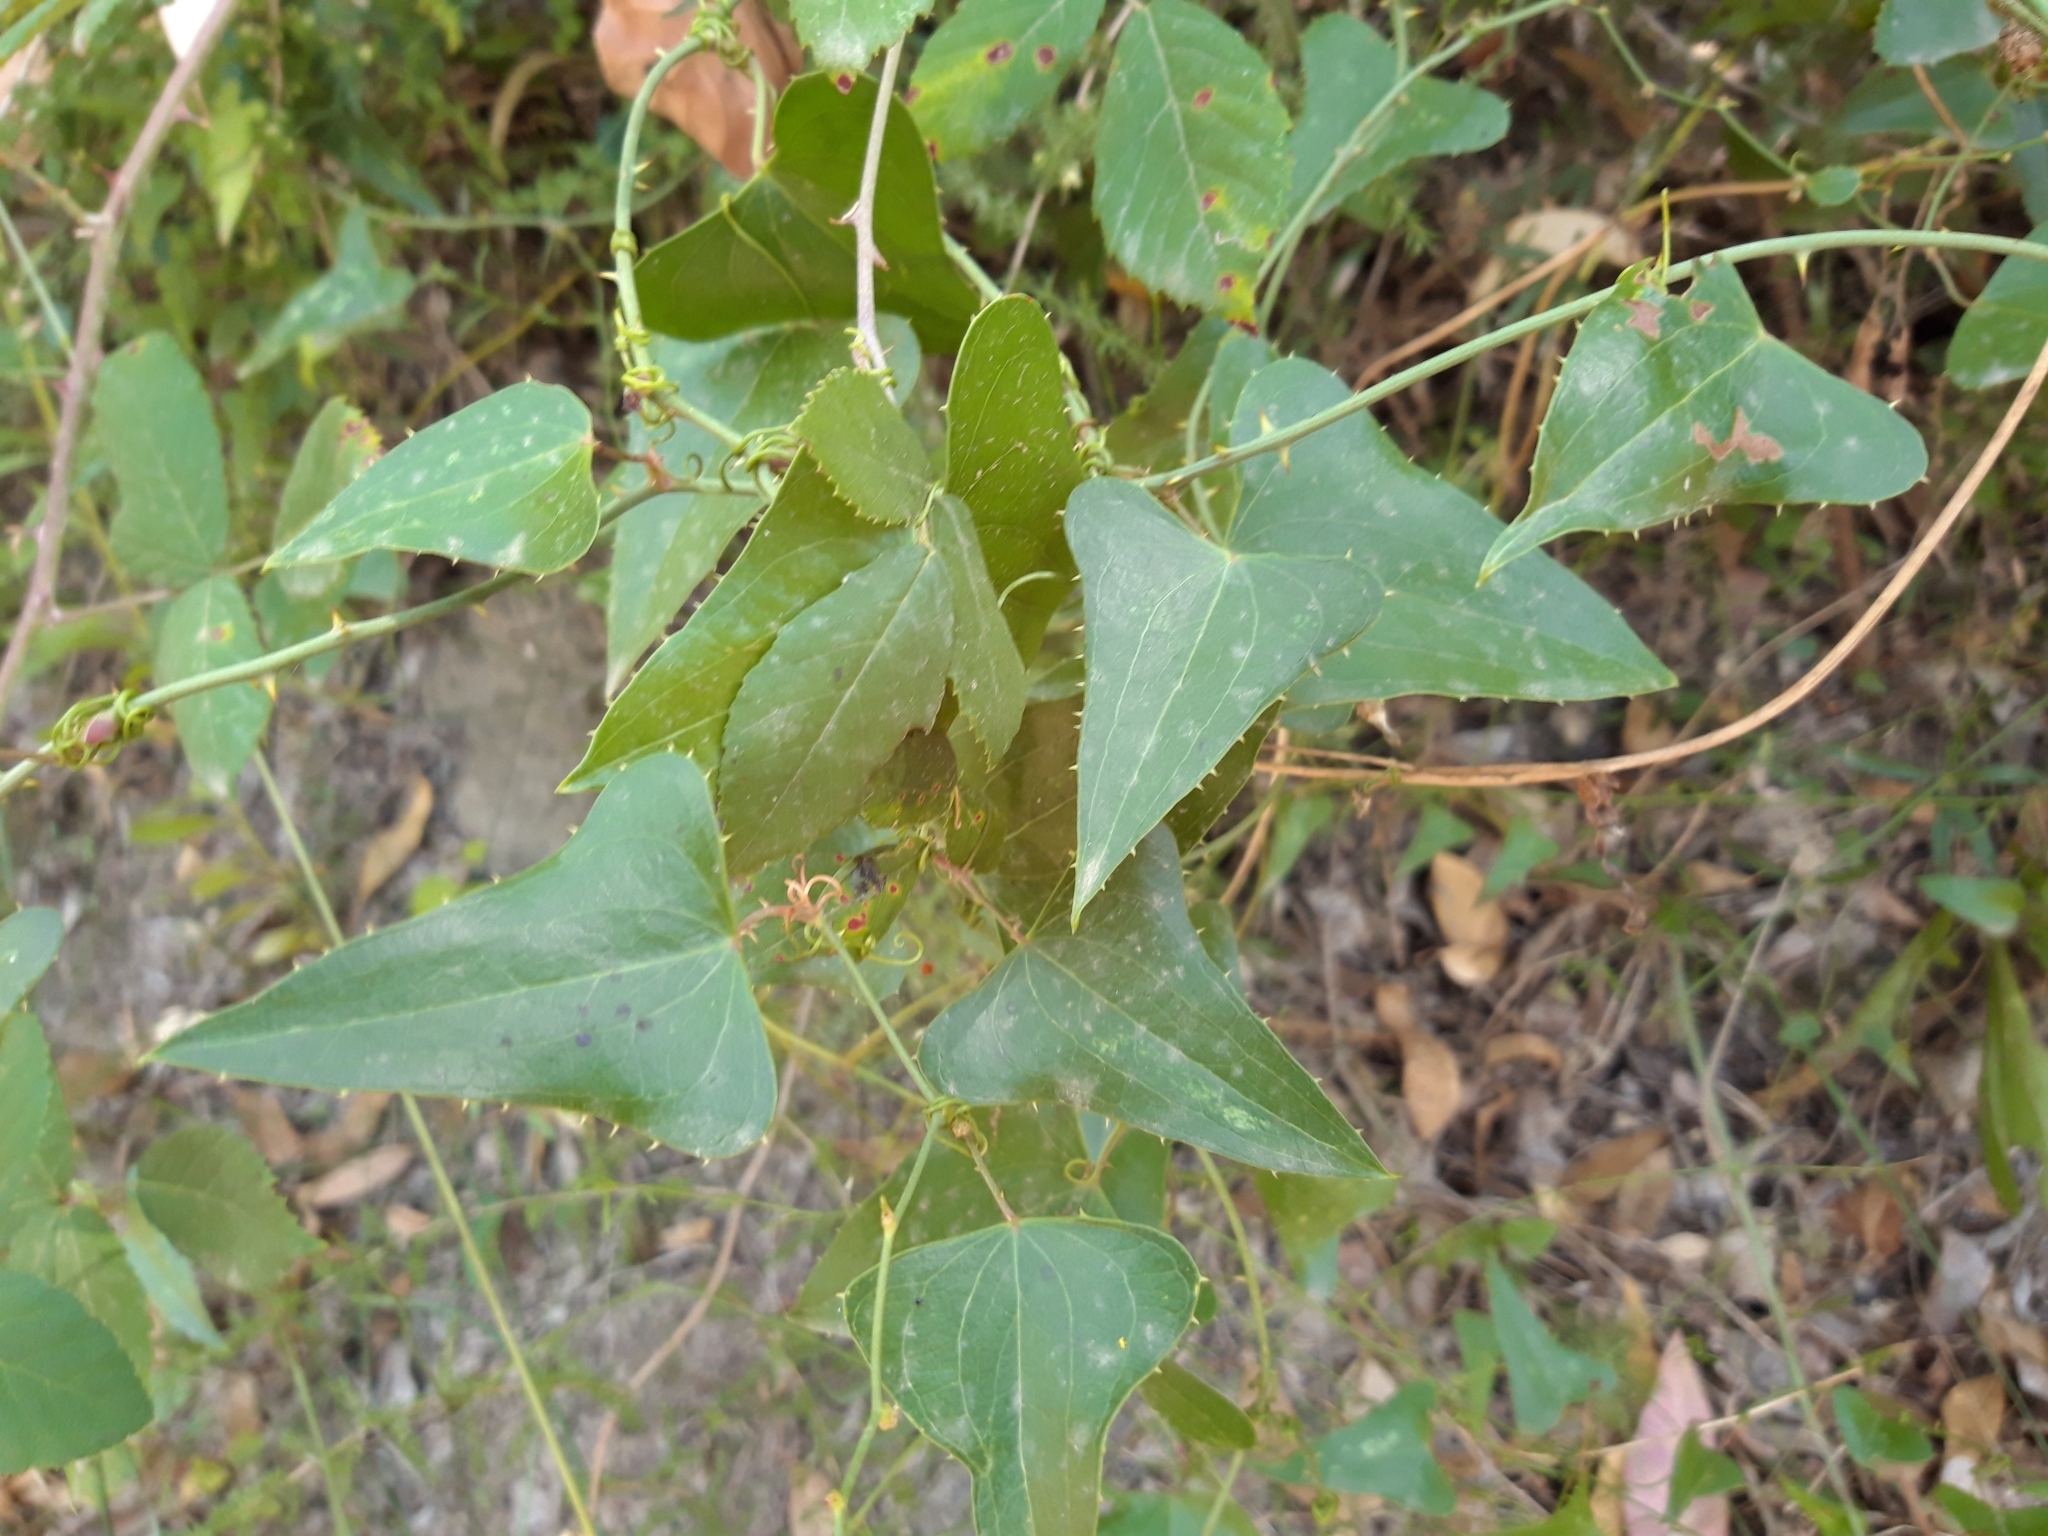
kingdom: Plantae
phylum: Tracheophyta
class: Liliopsida
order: Liliales
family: Smilacaceae
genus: Smilax
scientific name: Smilax aspera
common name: Common smilax
